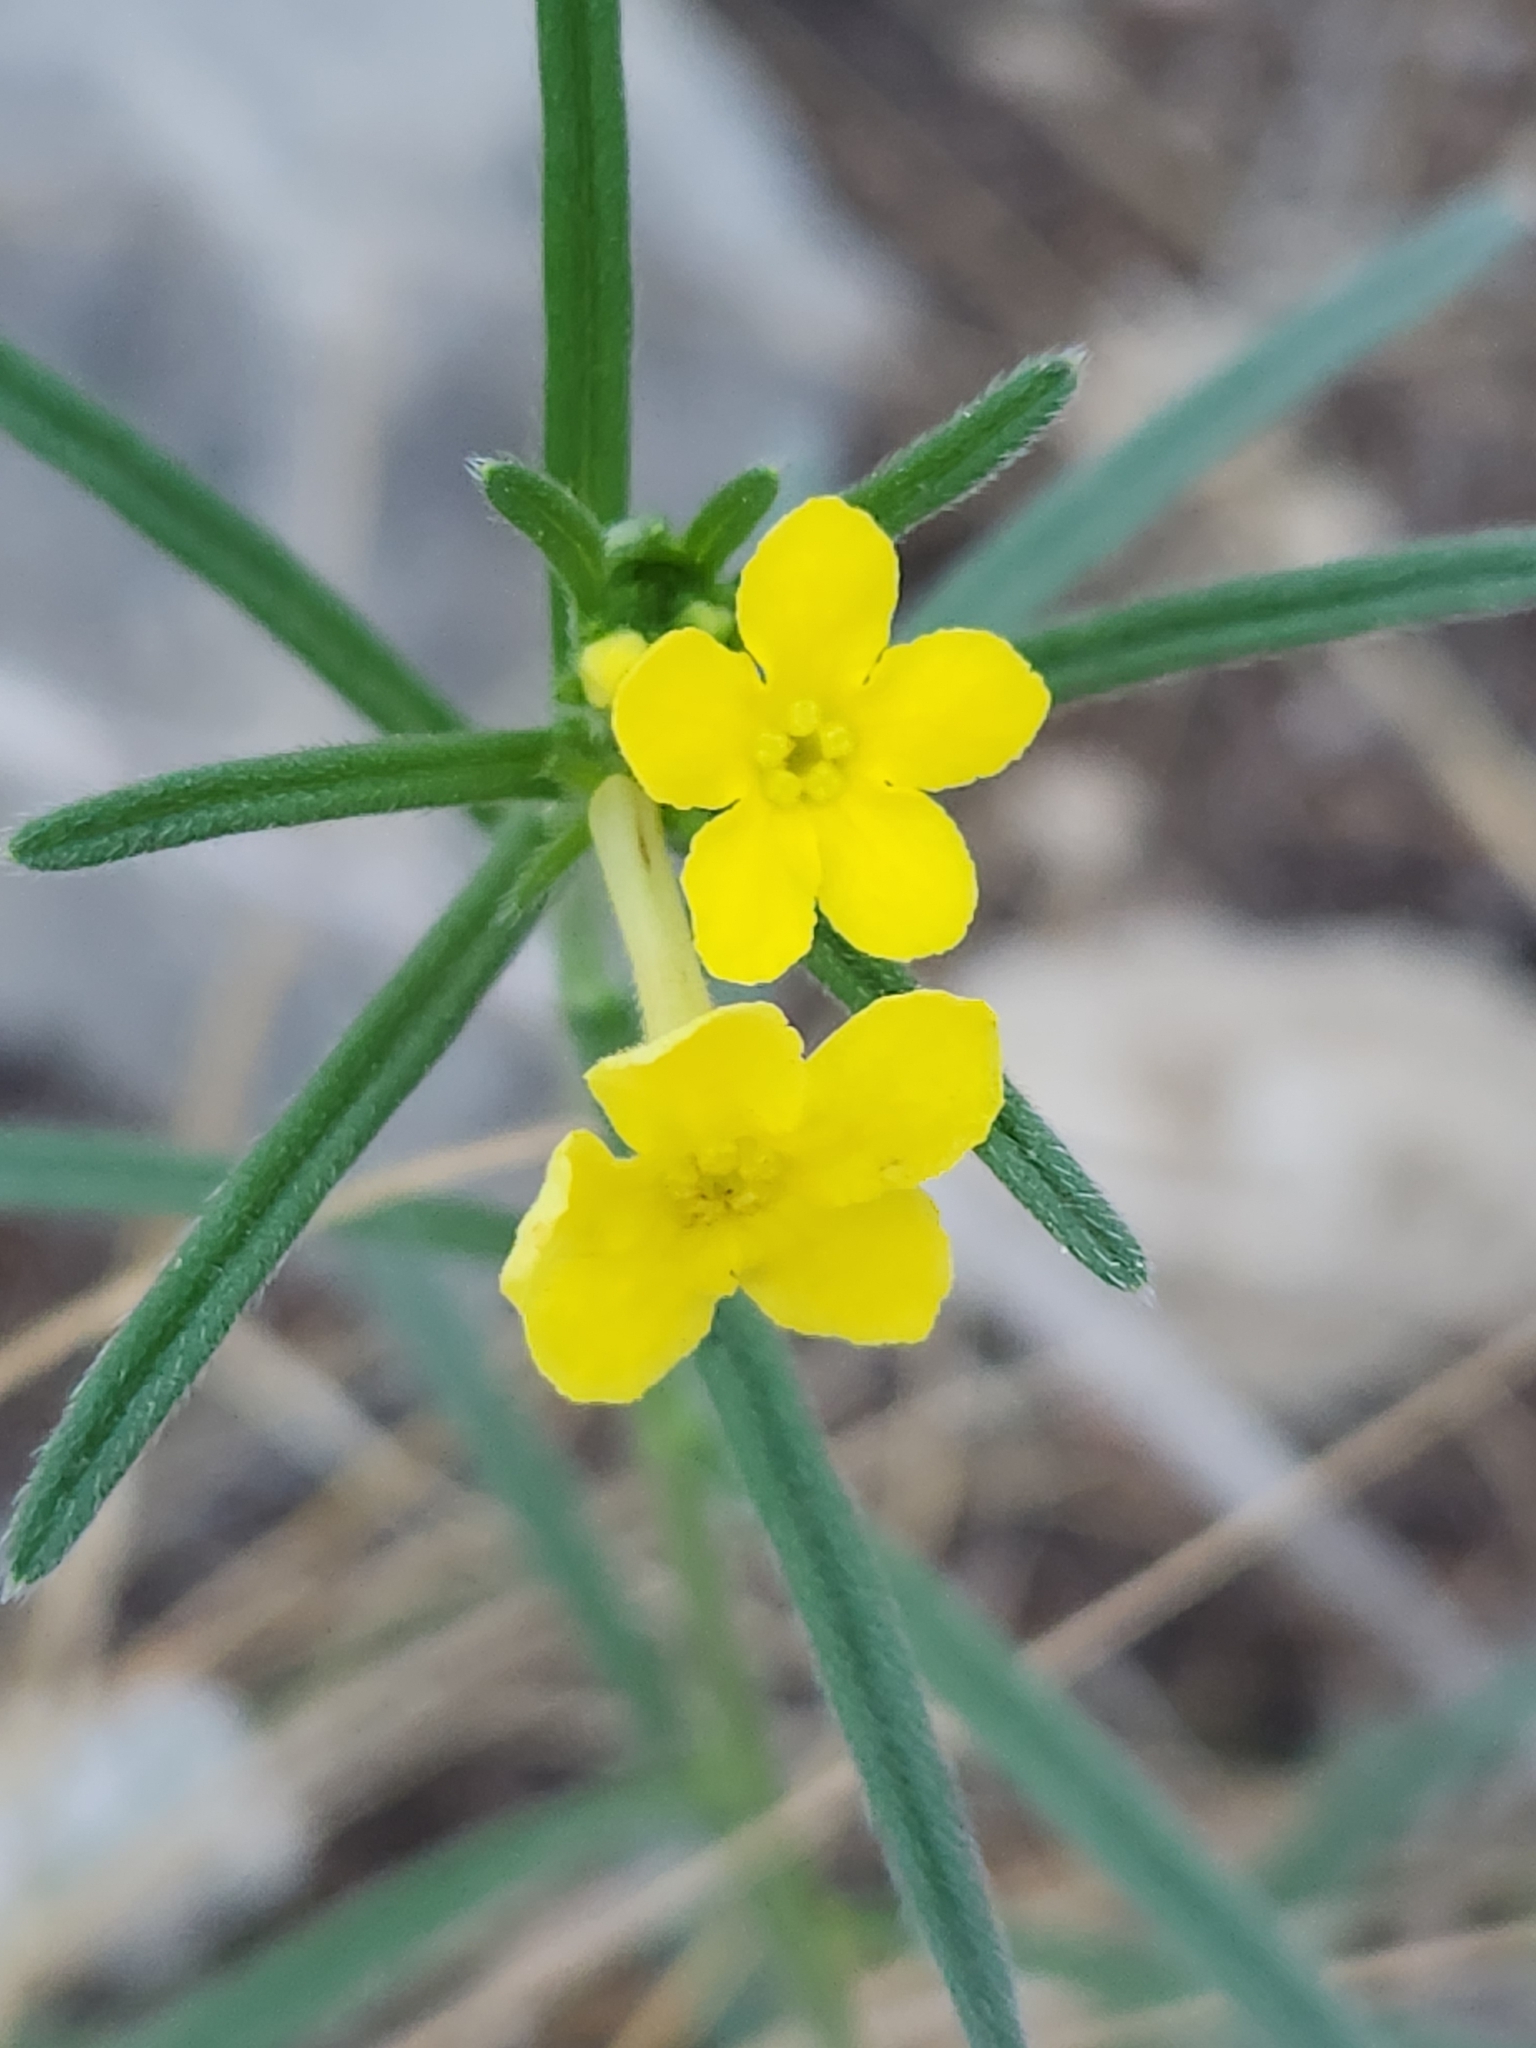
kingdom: Plantae
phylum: Tracheophyta
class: Magnoliopsida
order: Boraginales
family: Boraginaceae
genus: Lithospermum
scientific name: Lithospermum mirabile
